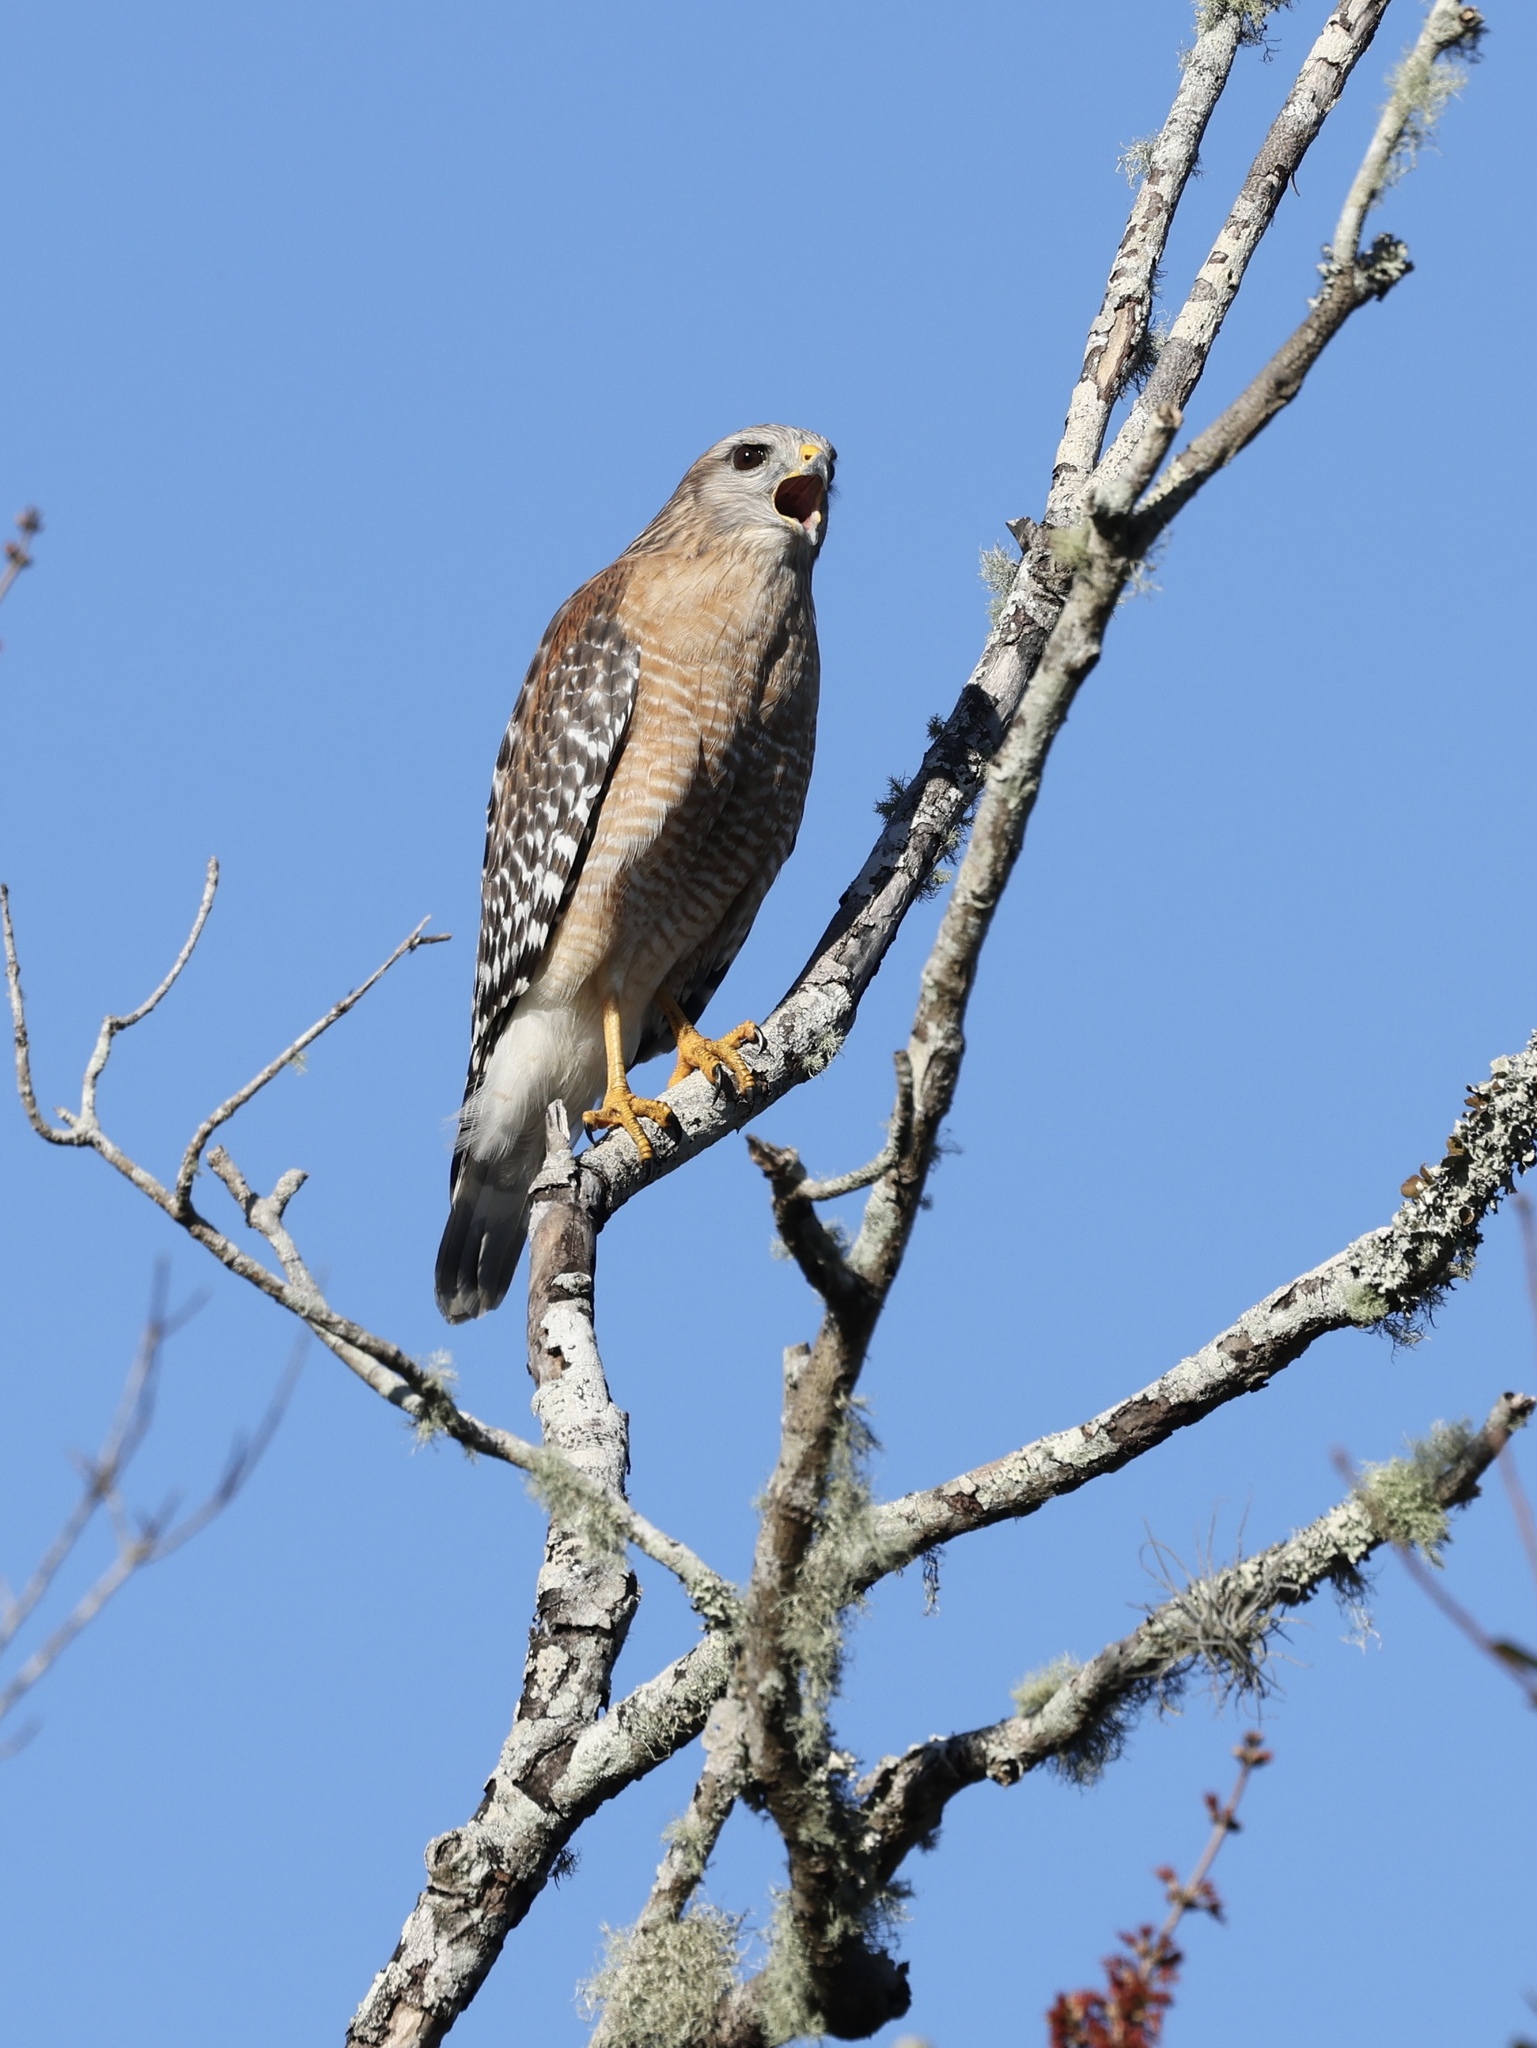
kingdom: Animalia
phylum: Chordata
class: Aves
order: Accipitriformes
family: Accipitridae
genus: Buteo
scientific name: Buteo lineatus
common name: Red-shouldered hawk
